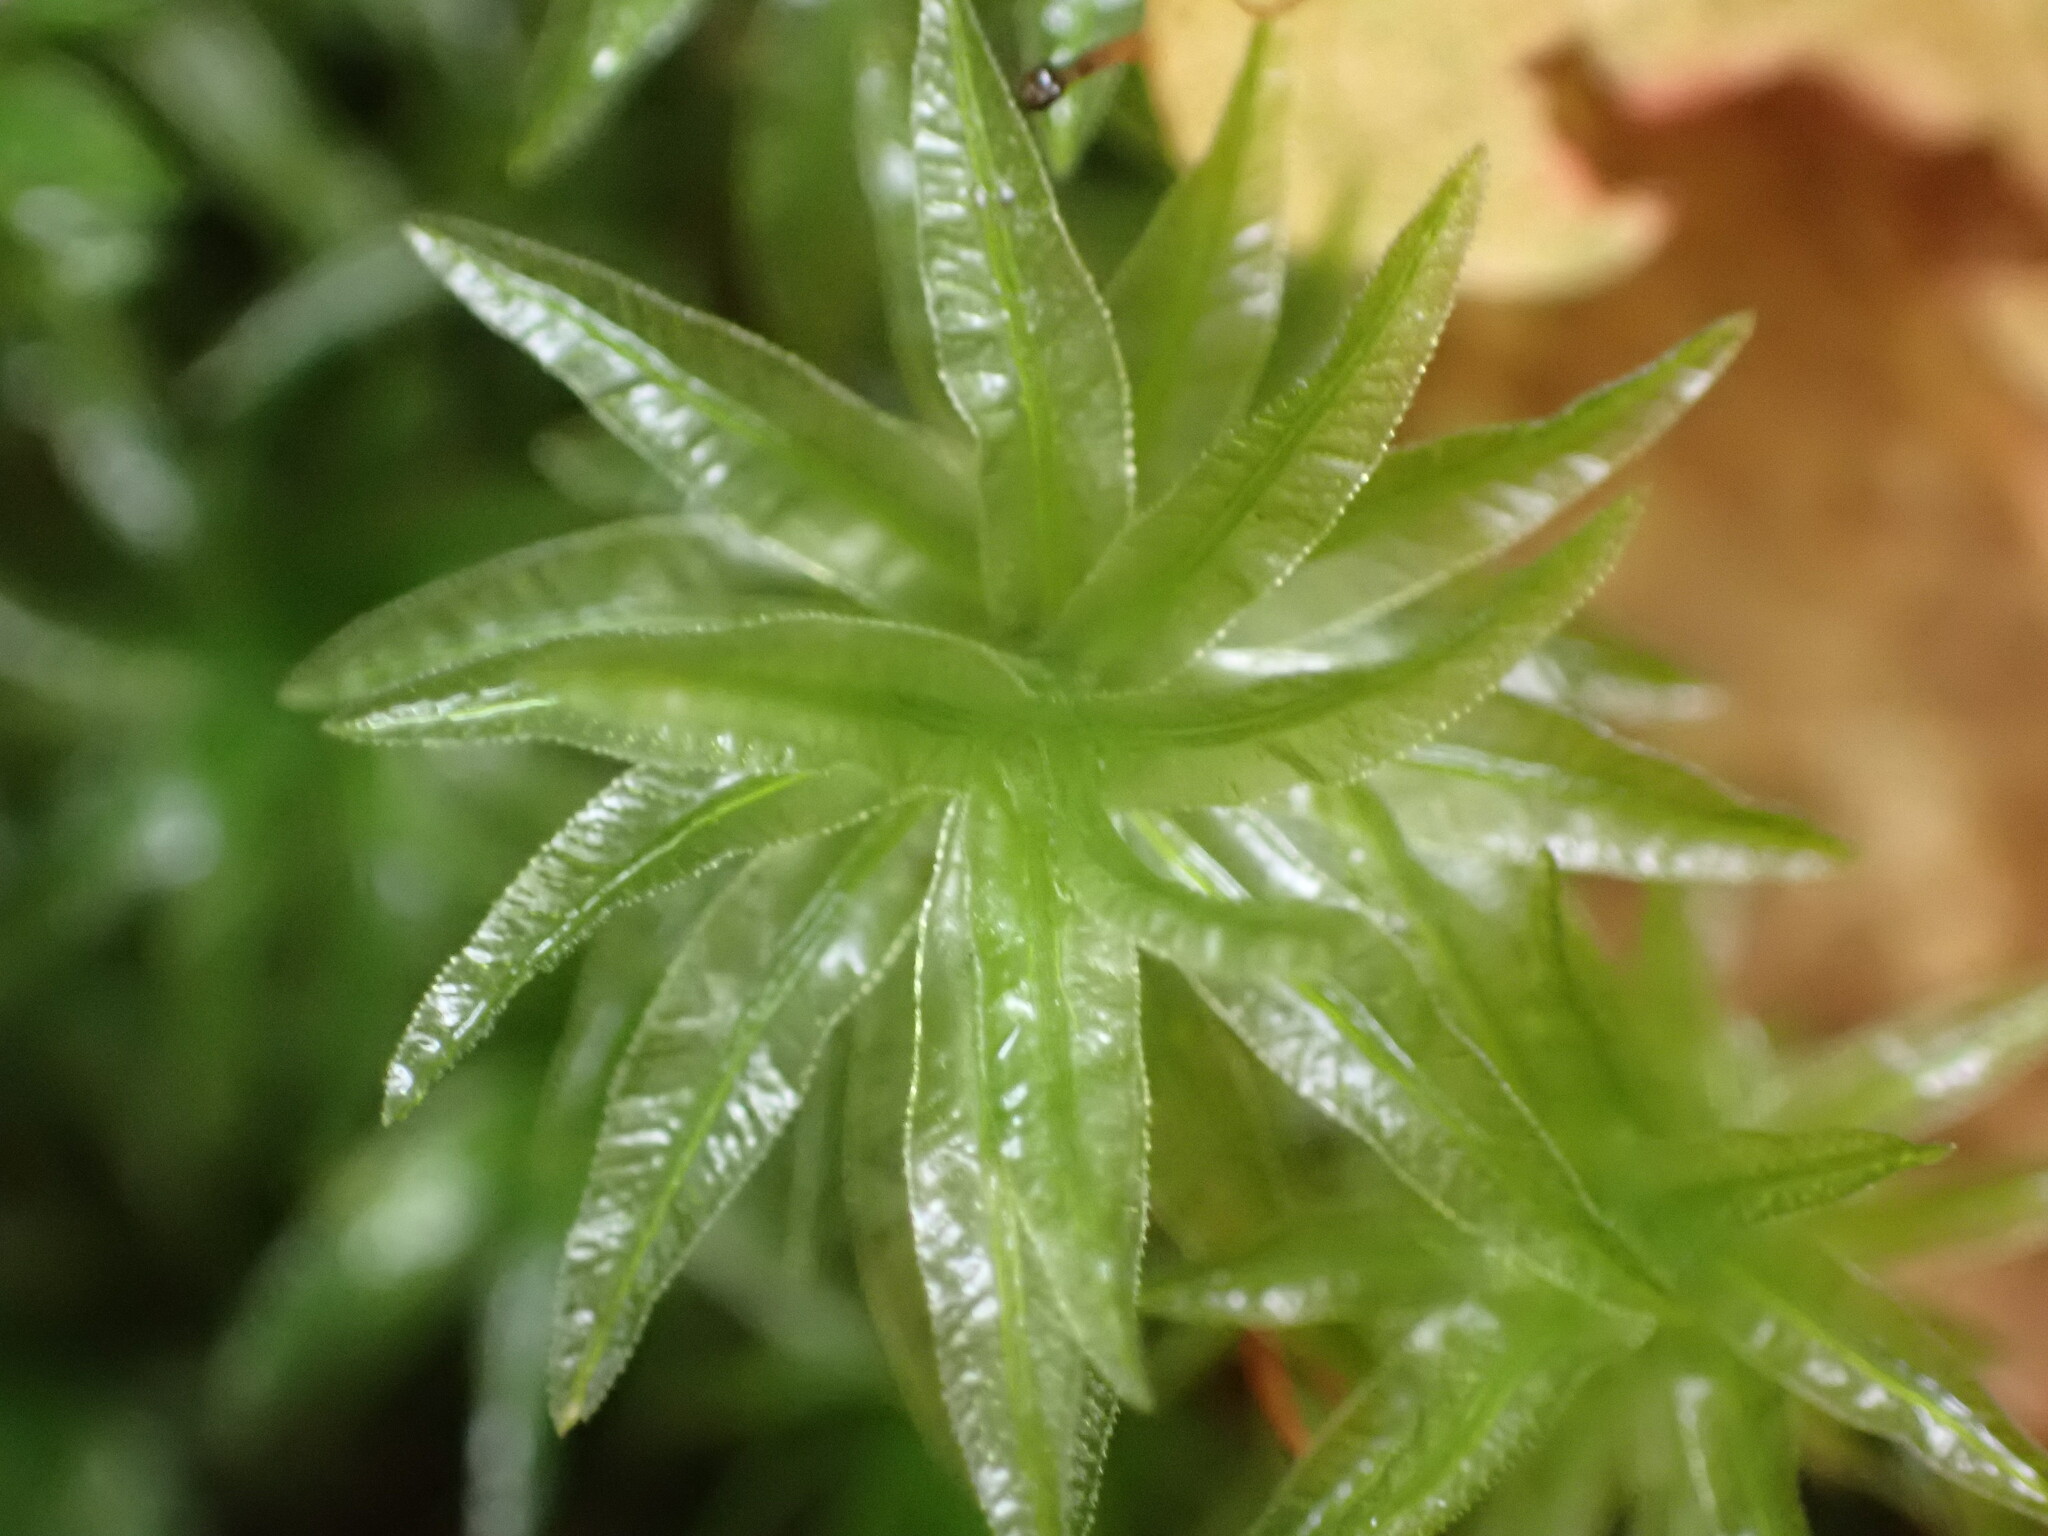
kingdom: Plantae
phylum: Bryophyta
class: Polytrichopsida
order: Polytrichales
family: Polytrichaceae
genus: Atrichum
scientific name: Atrichum androgynum
